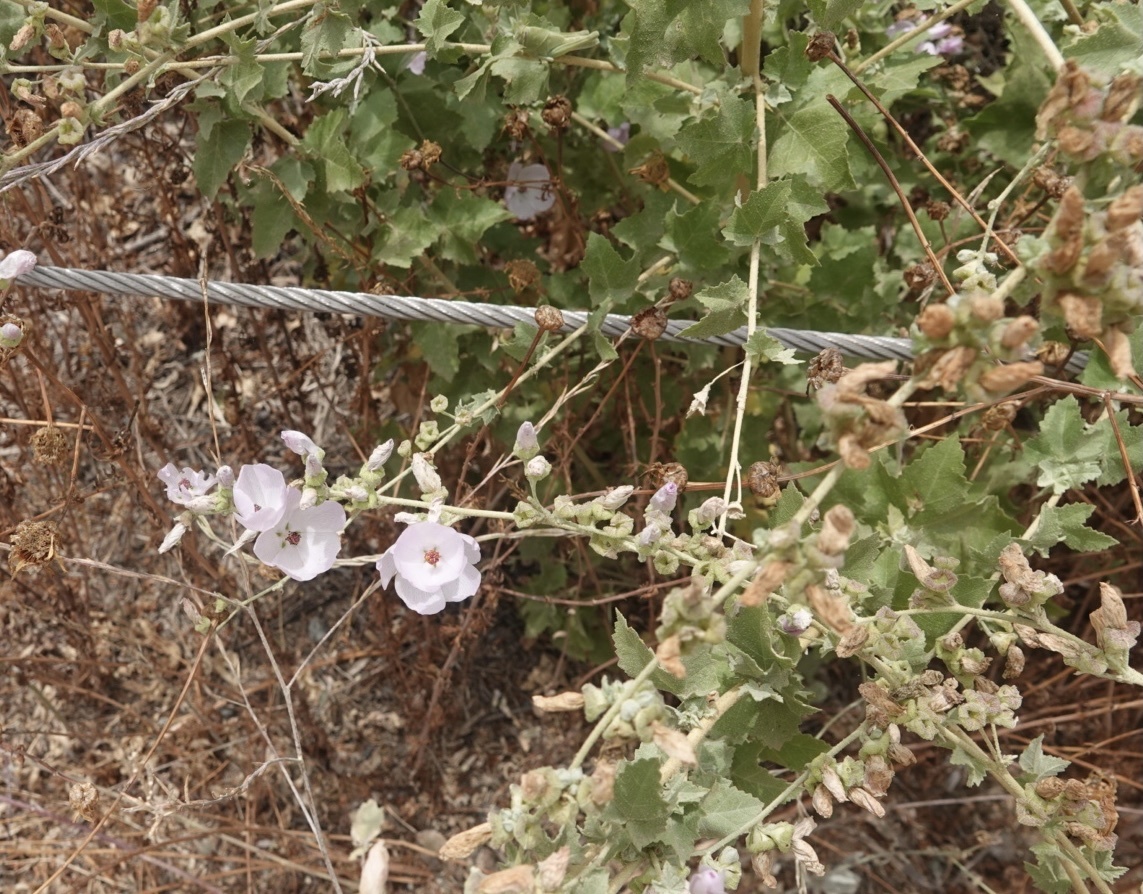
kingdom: Plantae
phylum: Tracheophyta
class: Magnoliopsida
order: Malvales
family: Malvaceae
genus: Malacothamnus
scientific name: Malacothamnus fasciculatus
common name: Sant cruz island bush-mallow
